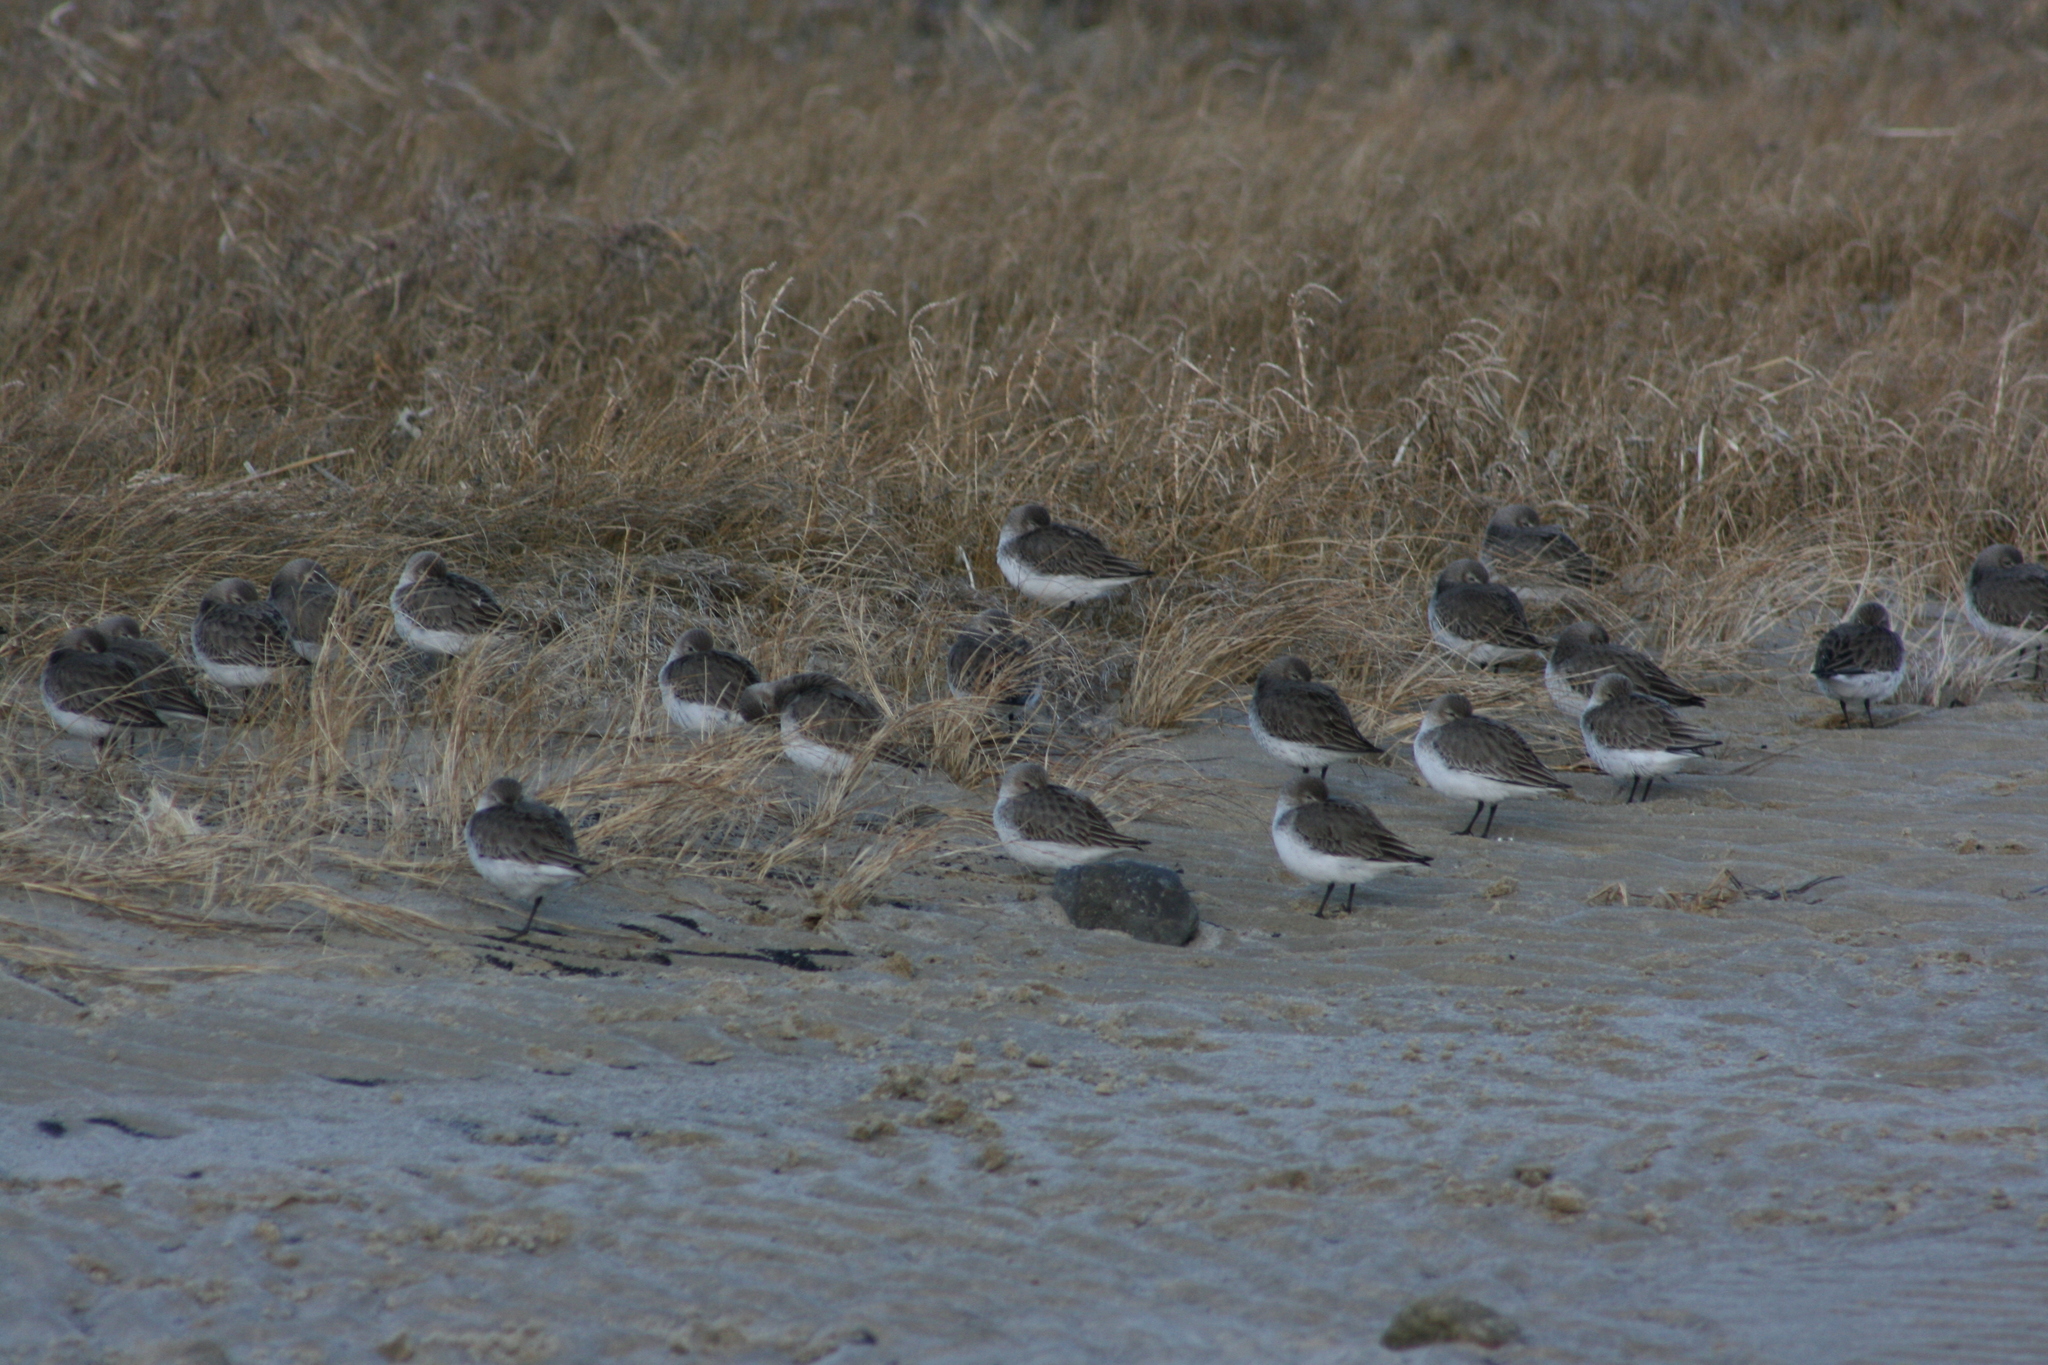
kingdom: Animalia
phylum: Chordata
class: Aves
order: Charadriiformes
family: Scolopacidae
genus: Calidris
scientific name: Calidris alpina
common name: Dunlin
